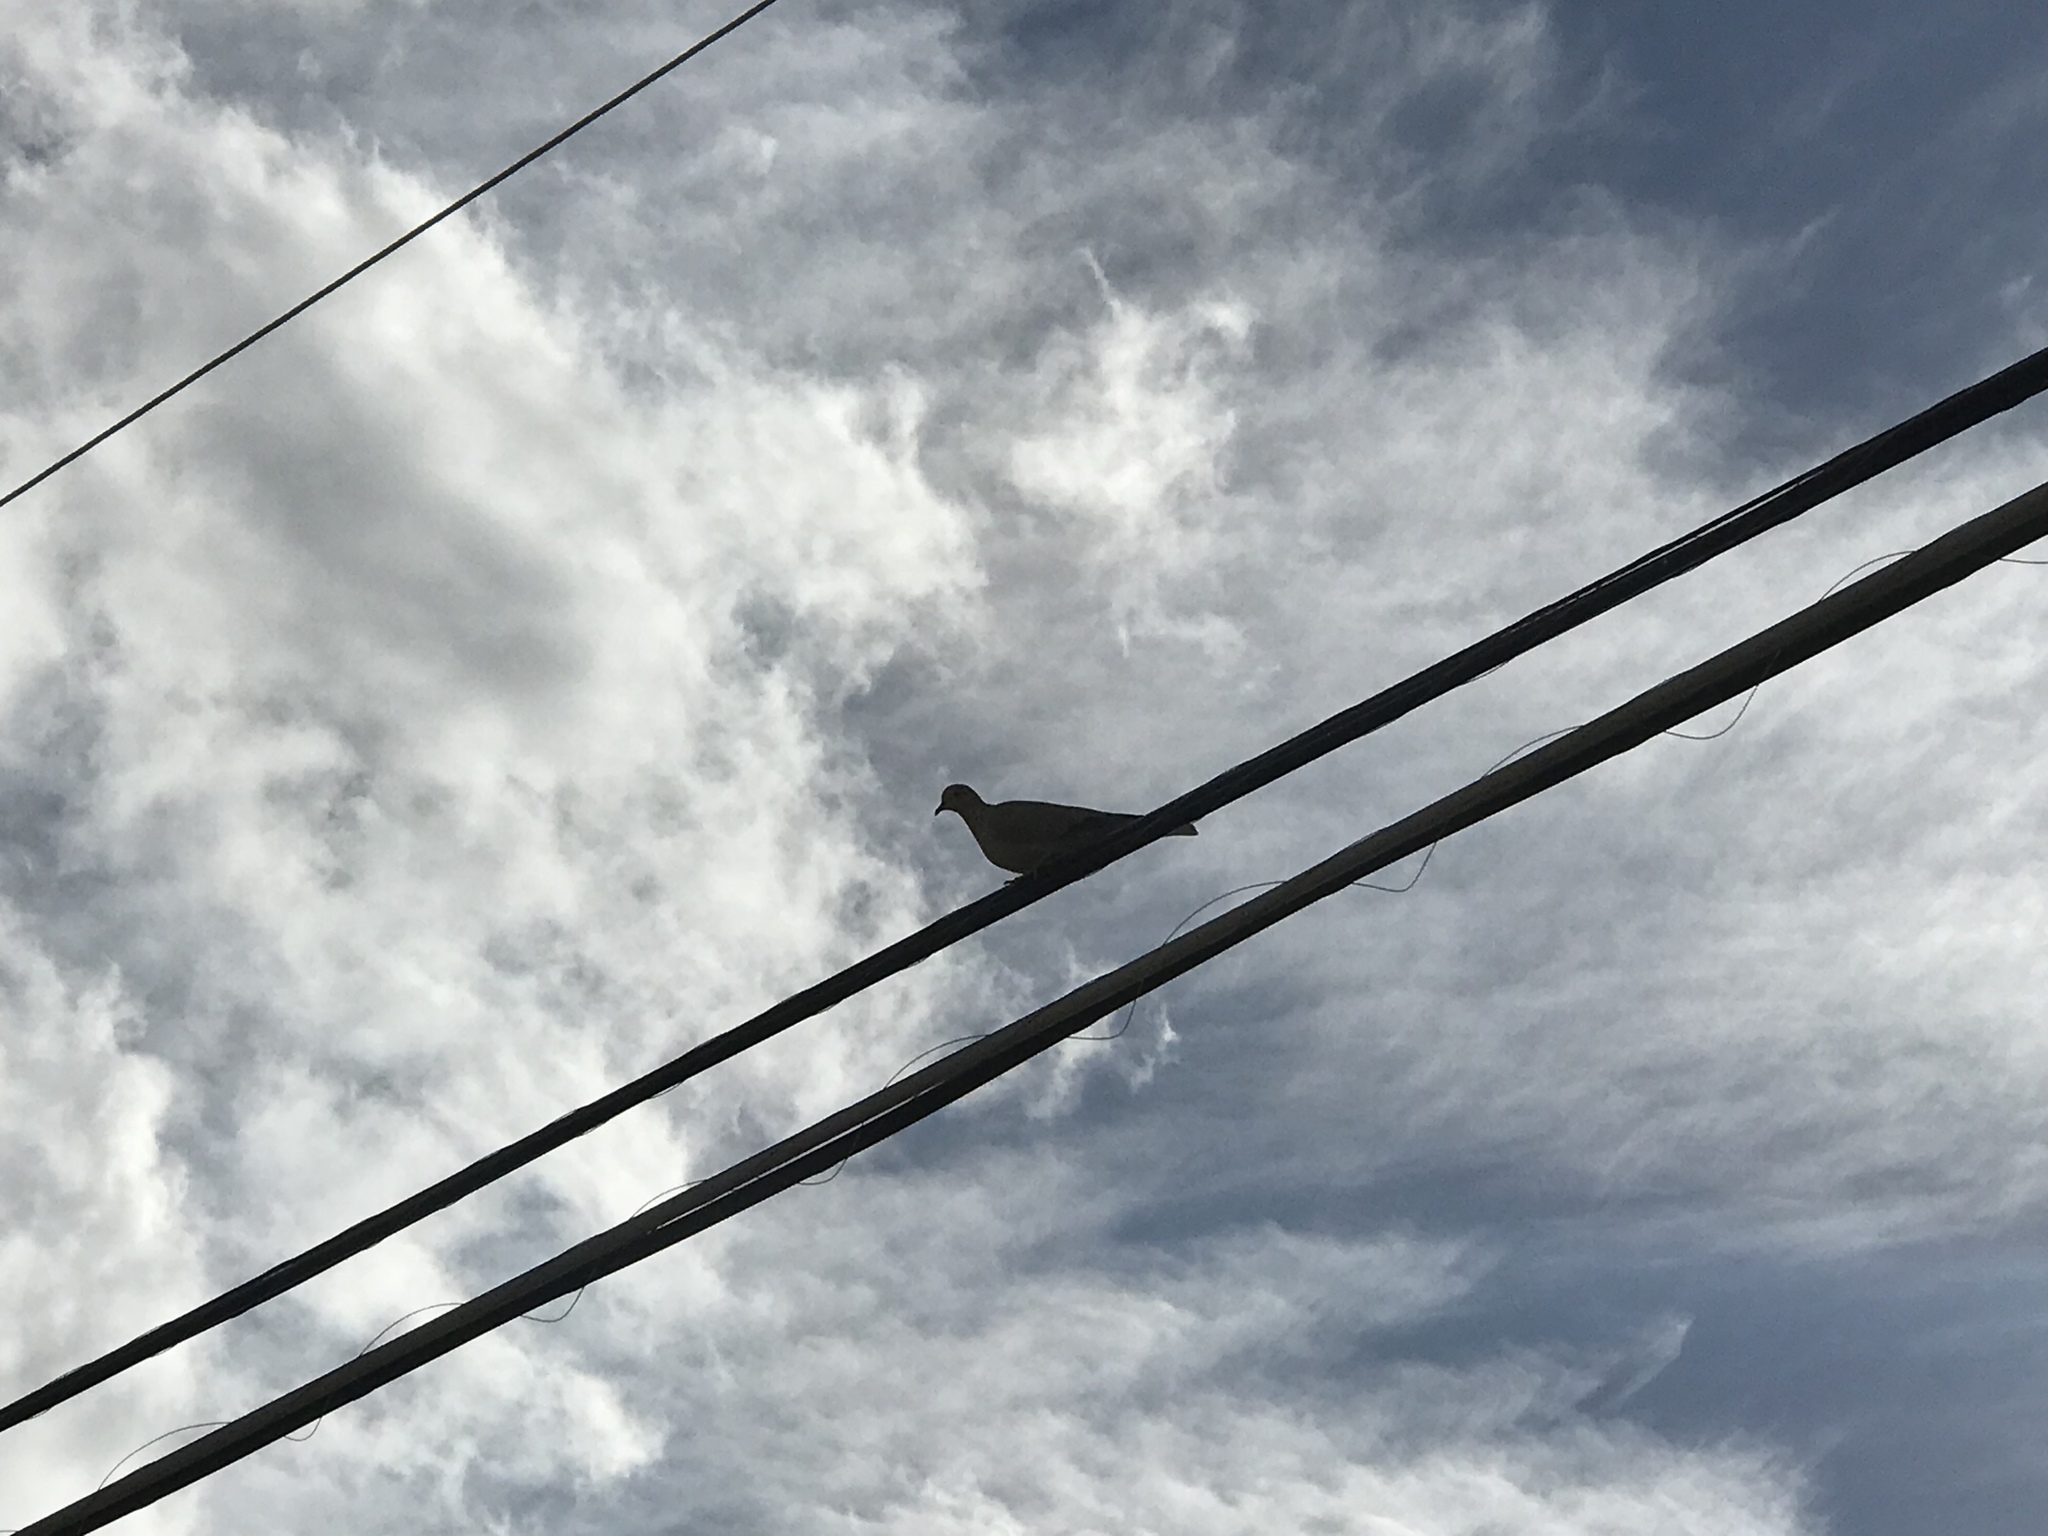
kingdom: Animalia
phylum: Chordata
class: Aves
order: Columbiformes
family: Columbidae
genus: Streptopelia
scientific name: Streptopelia decaocto
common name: Eurasian collared dove
